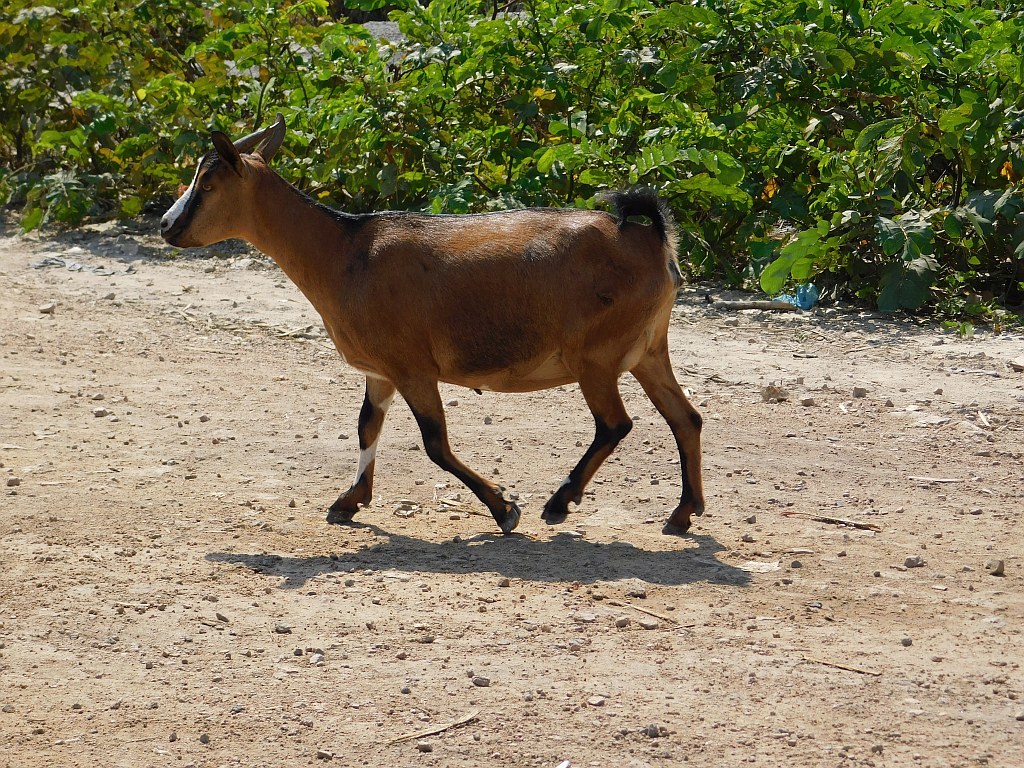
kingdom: Animalia
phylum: Chordata
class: Mammalia
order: Artiodactyla
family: Bovidae
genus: Capra
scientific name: Capra hircus
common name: Domestic goat
